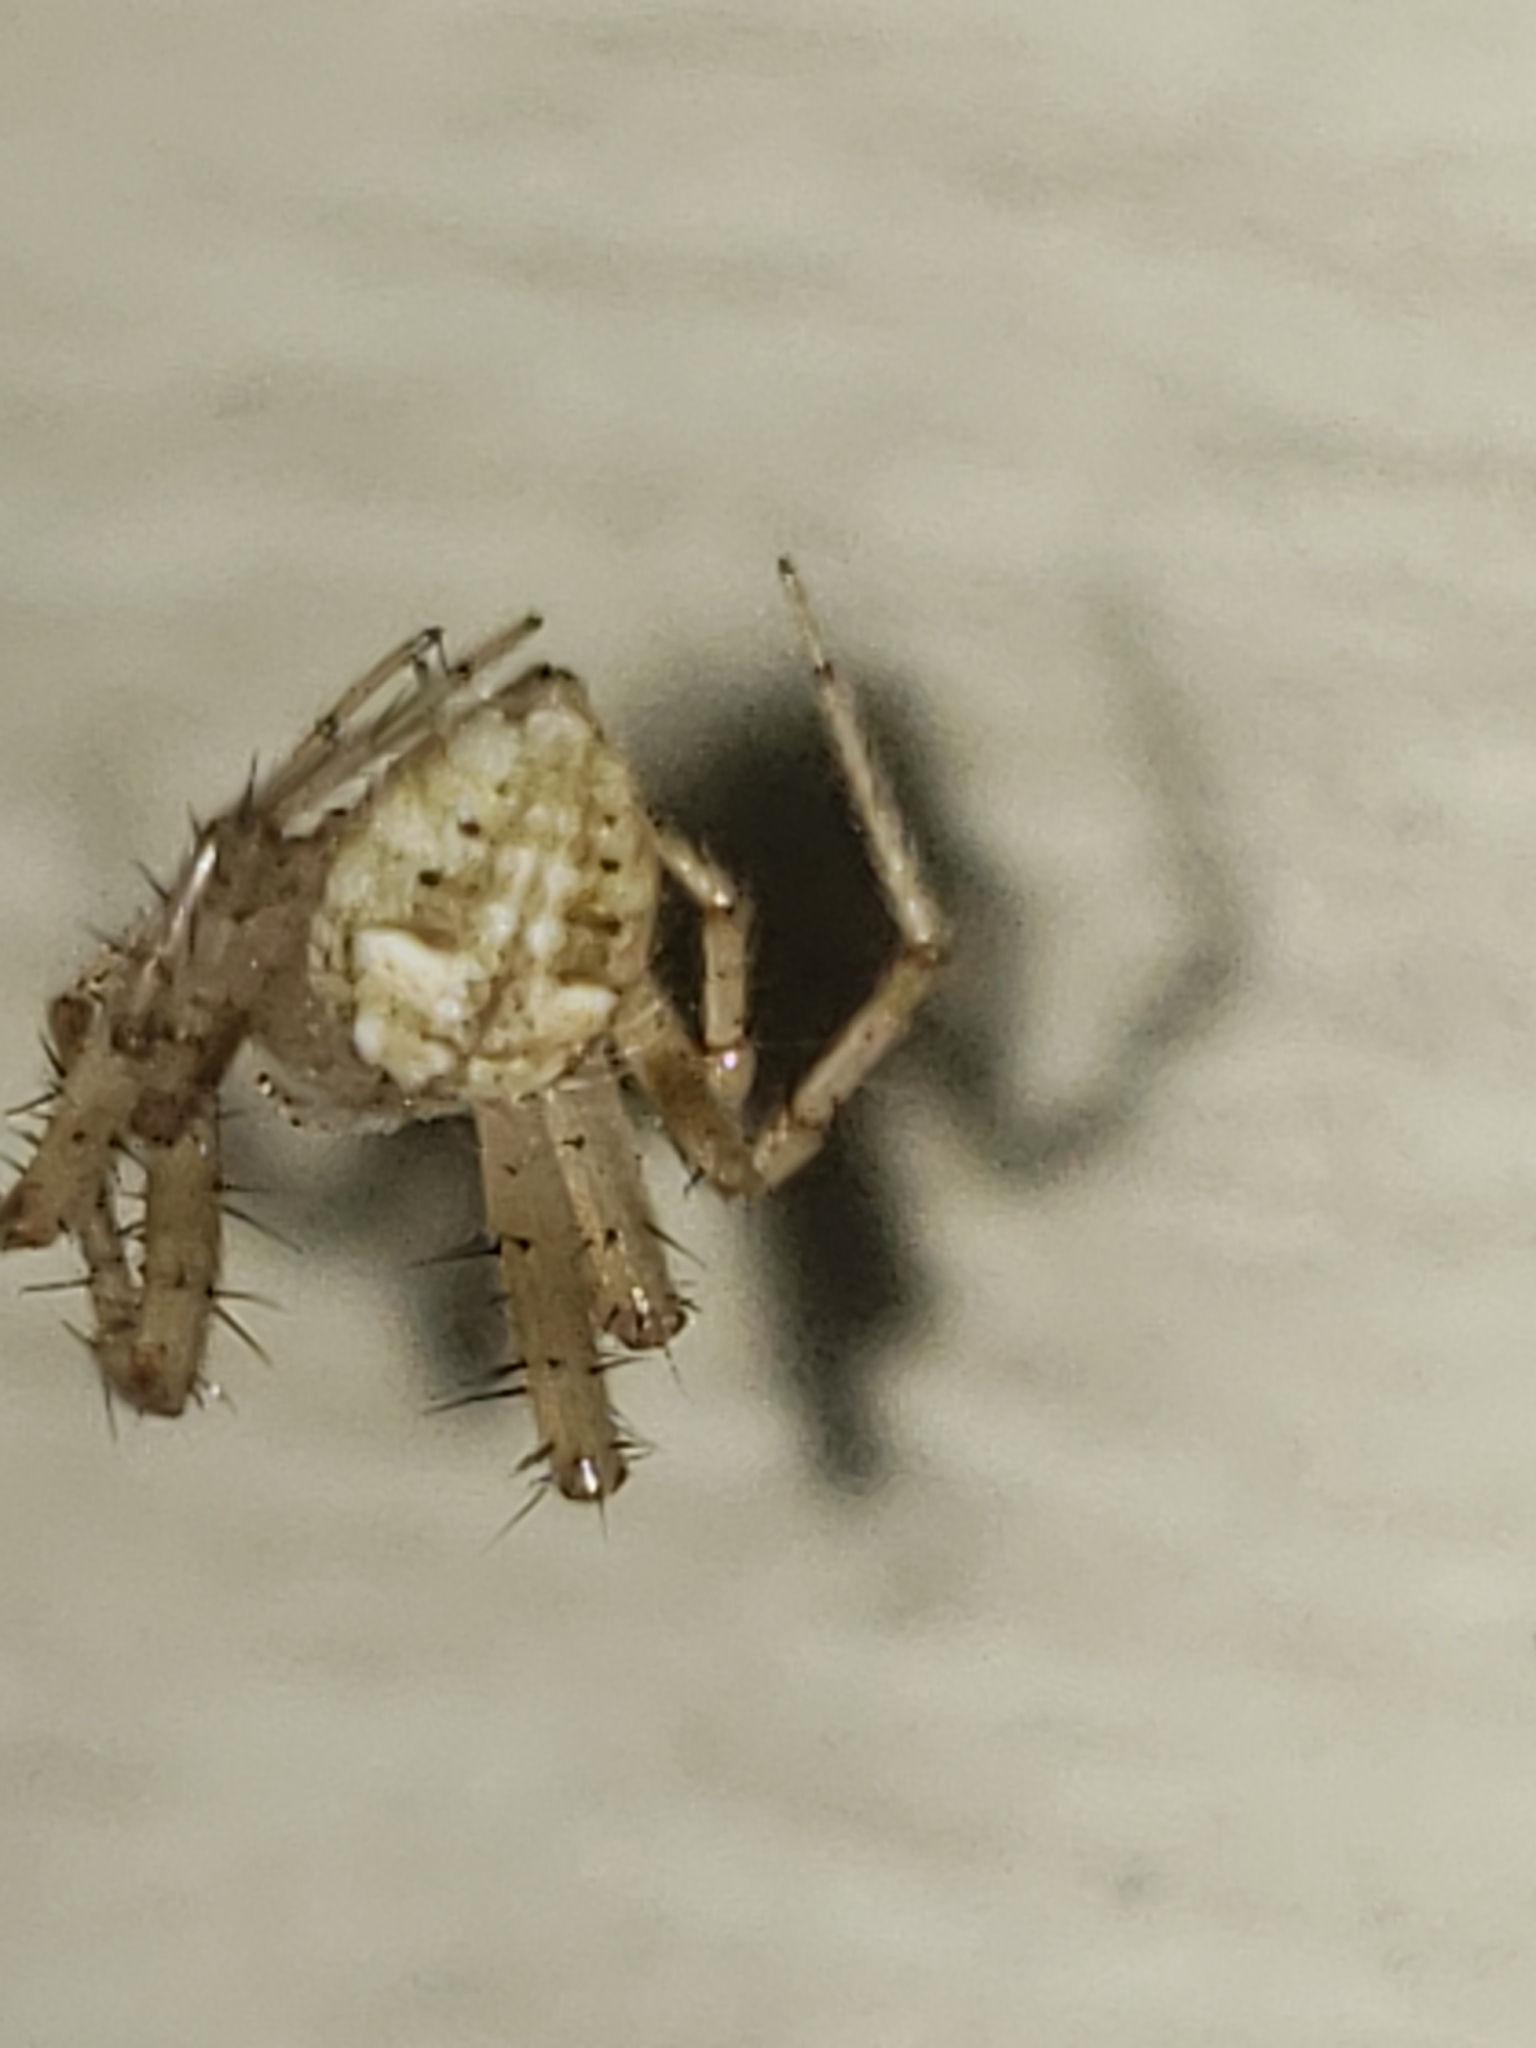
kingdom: Animalia
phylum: Arthropoda
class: Arachnida
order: Araneae
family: Araneidae
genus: Araneus
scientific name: Araneus pegnia
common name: Orb weavers
